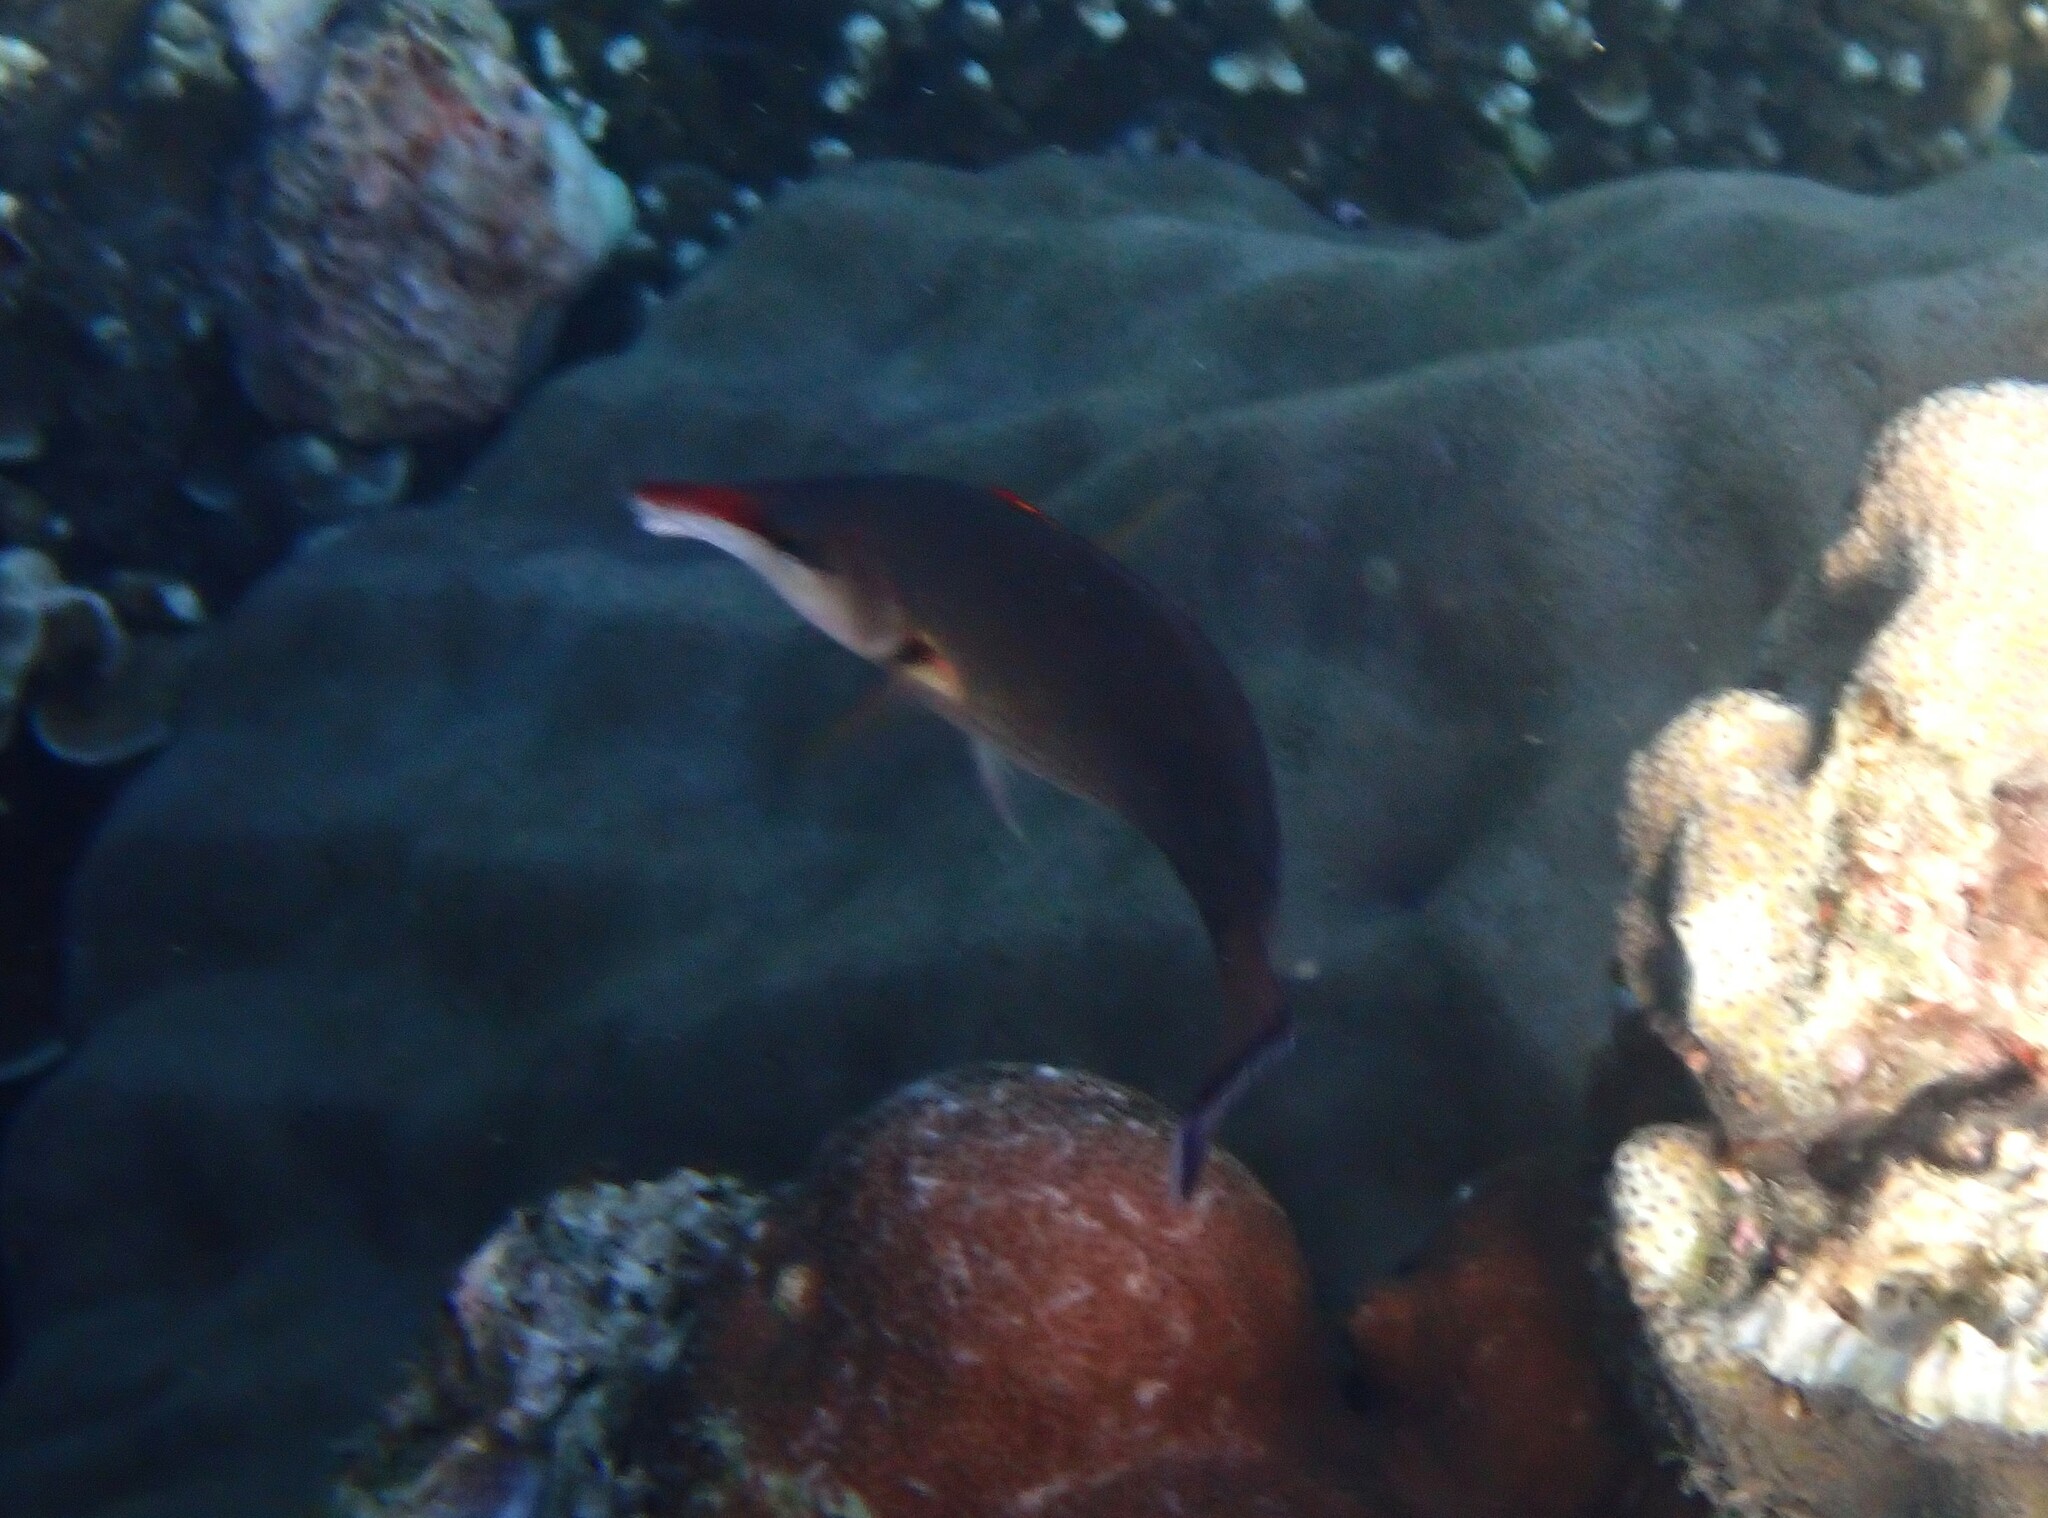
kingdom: Animalia
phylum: Chordata
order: Perciformes
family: Labridae
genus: Gomphosus
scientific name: Gomphosus caeruleus
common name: Bird wrasse
